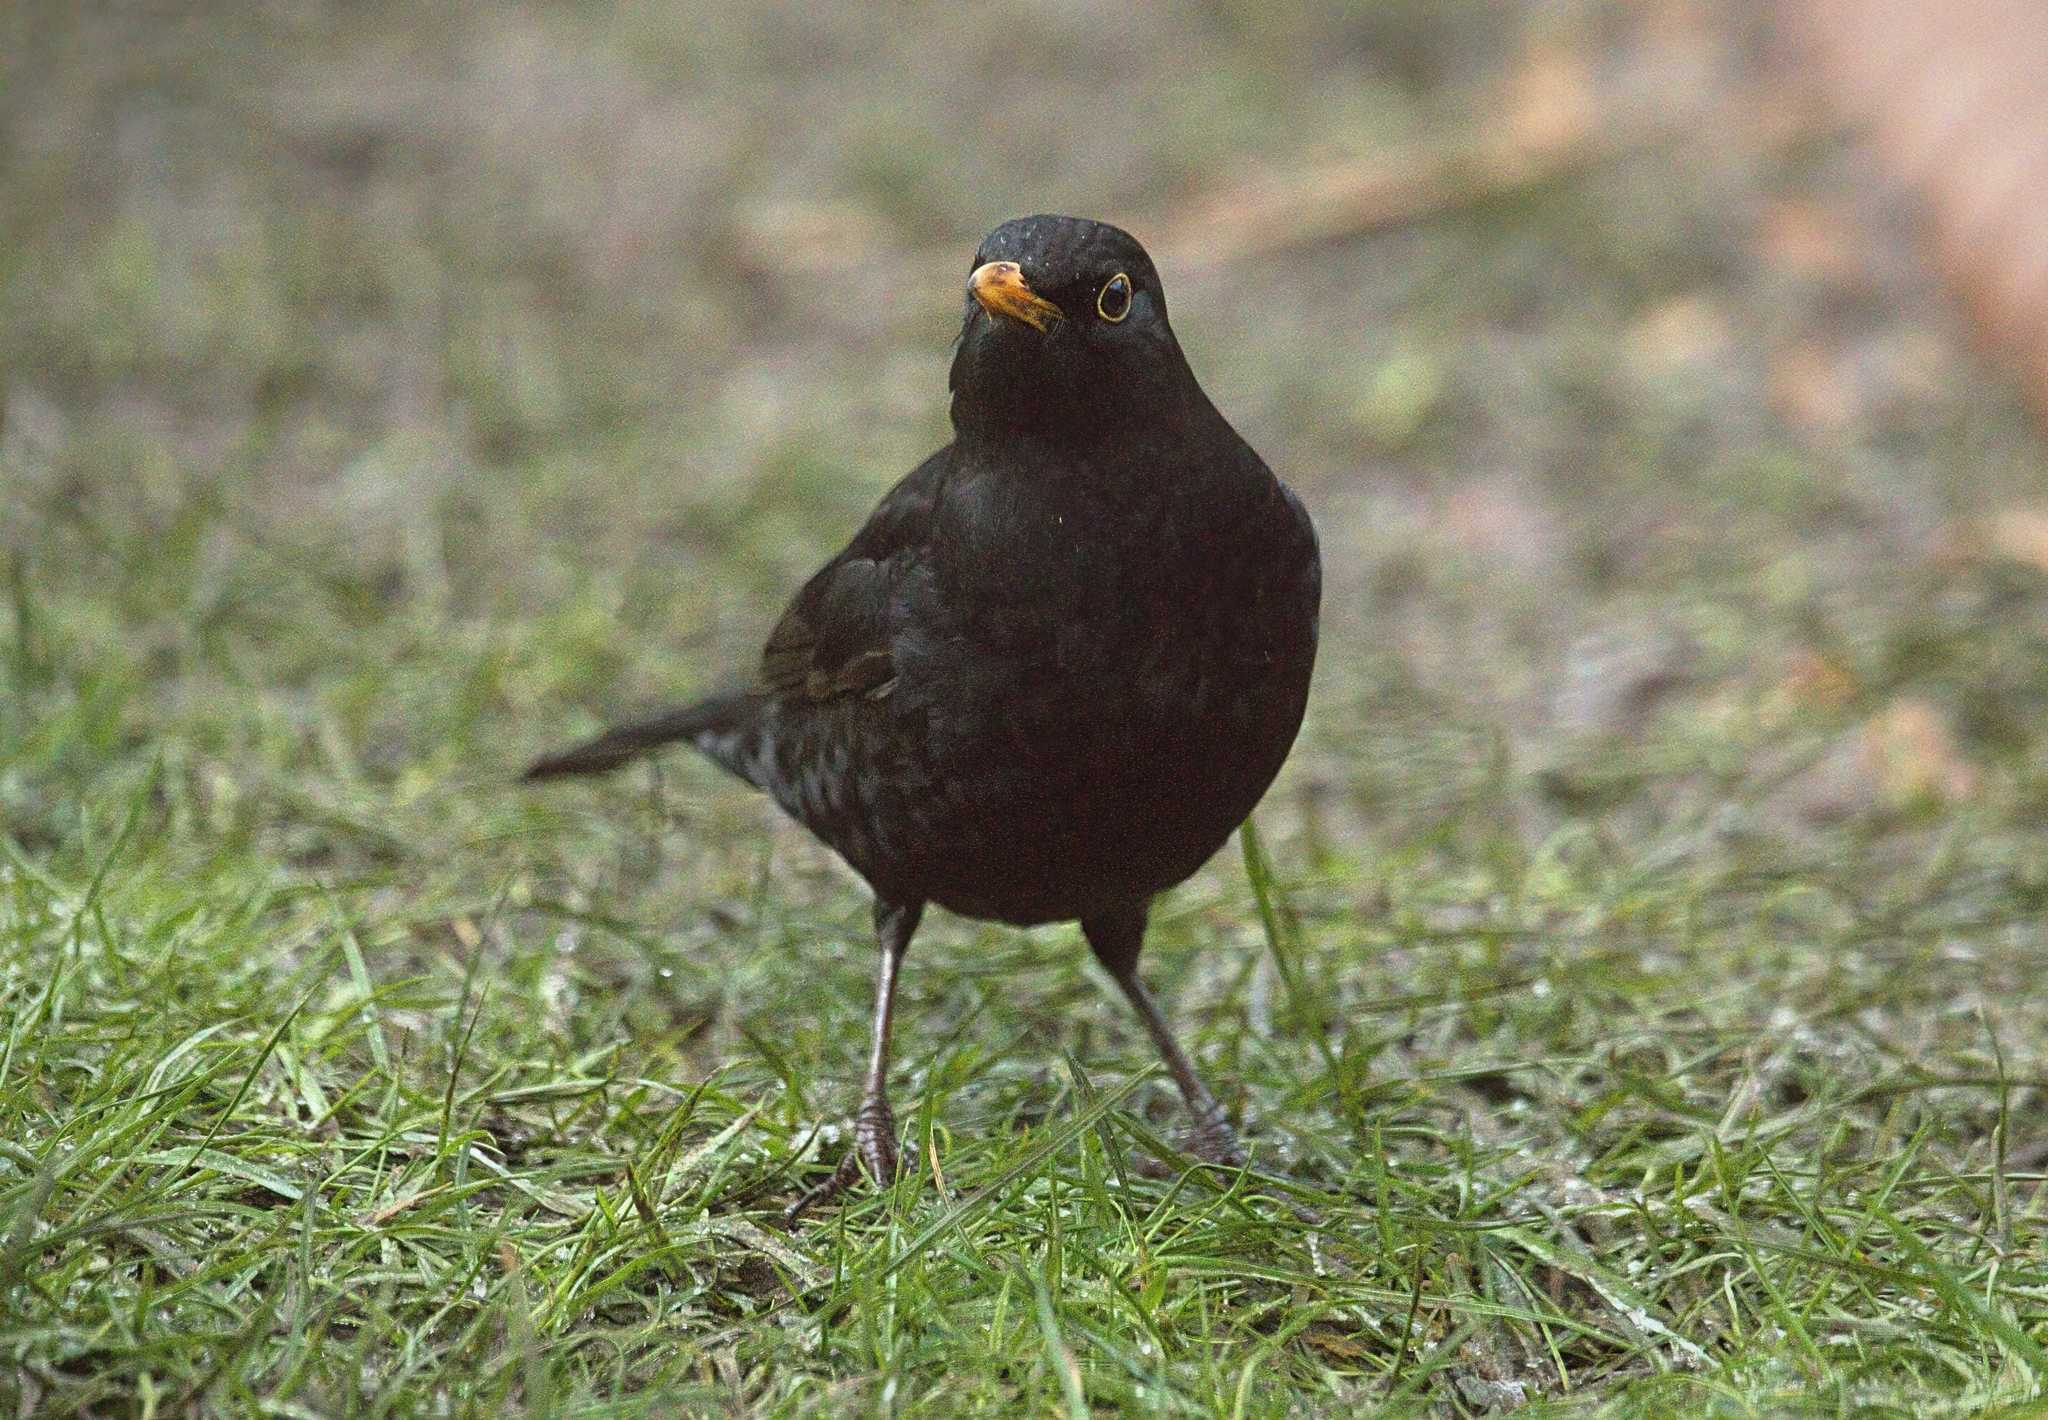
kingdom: Animalia
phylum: Chordata
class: Aves
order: Passeriformes
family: Turdidae
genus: Turdus
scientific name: Turdus merula
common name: Common blackbird
